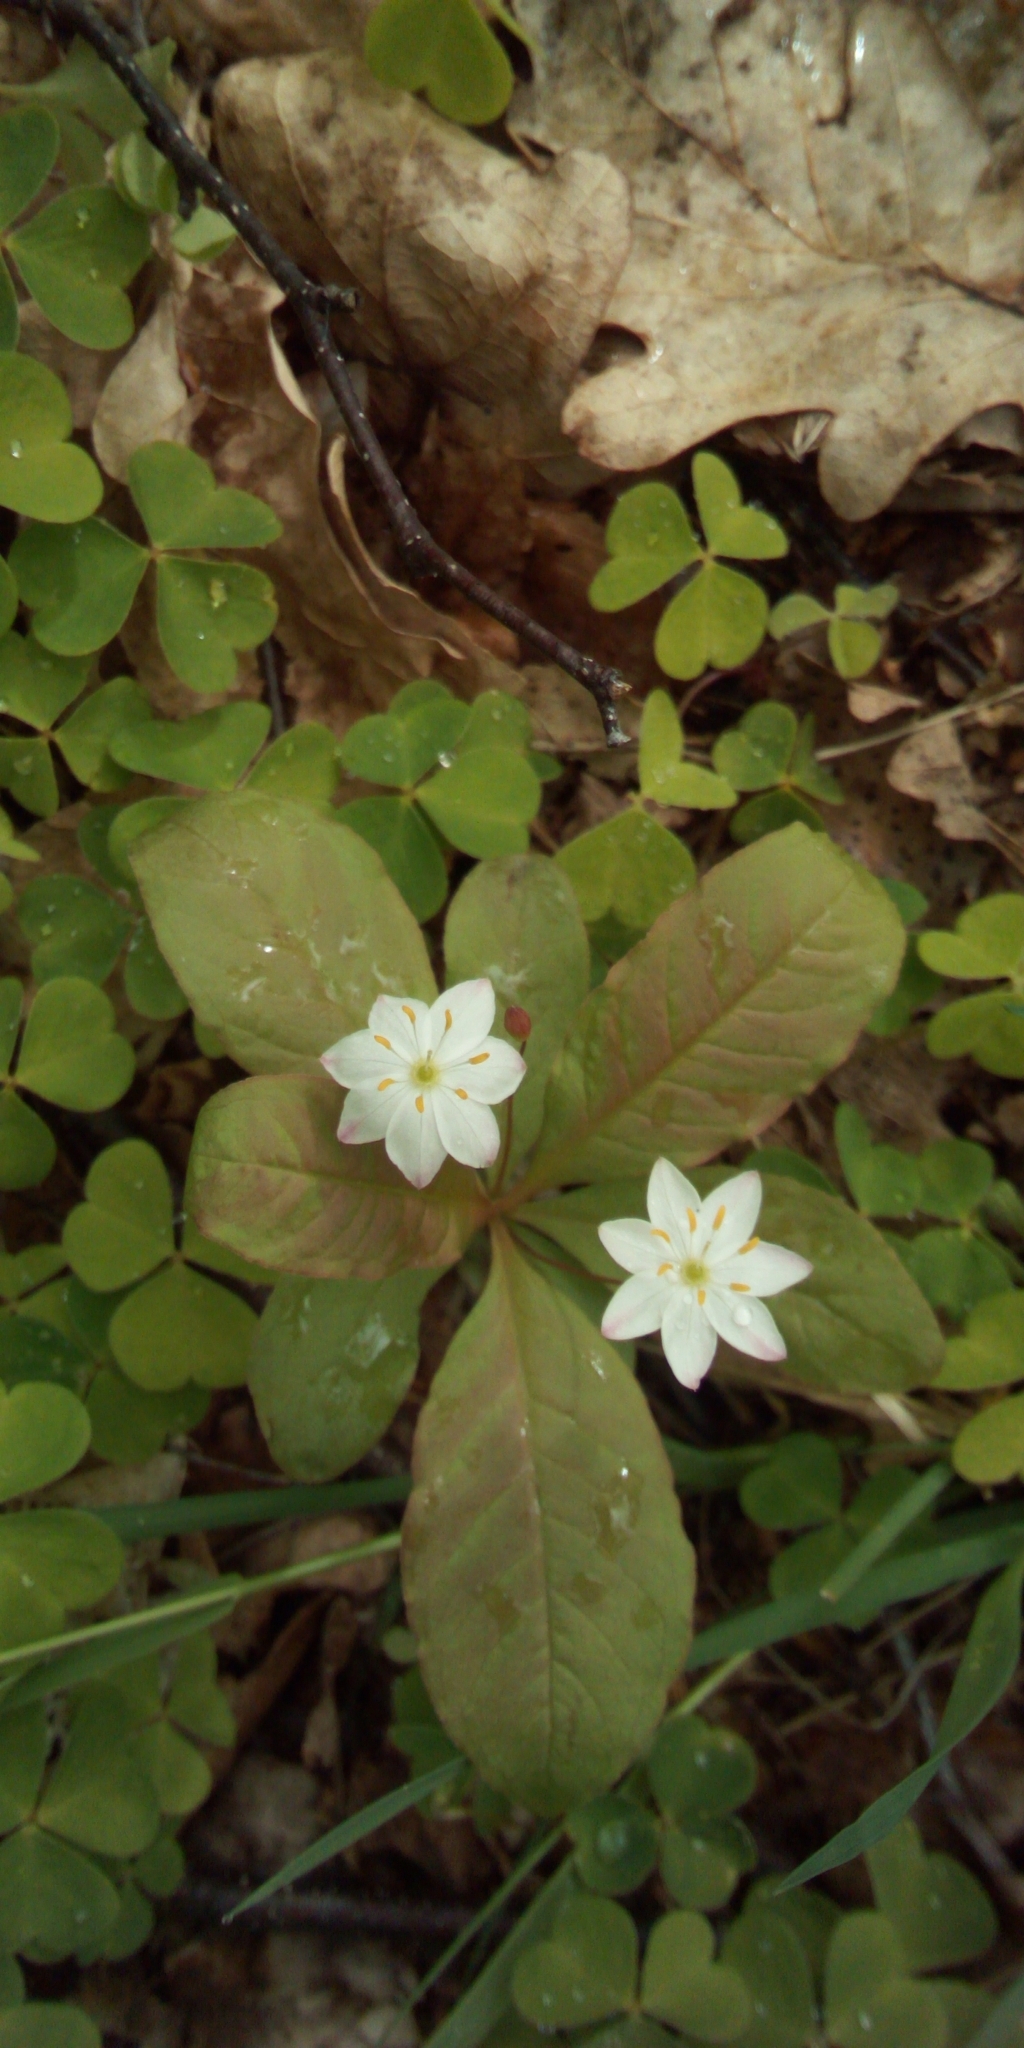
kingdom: Plantae
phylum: Tracheophyta
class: Magnoliopsida
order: Ericales
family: Primulaceae
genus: Lysimachia
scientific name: Lysimachia europaea
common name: Arctic starflower
